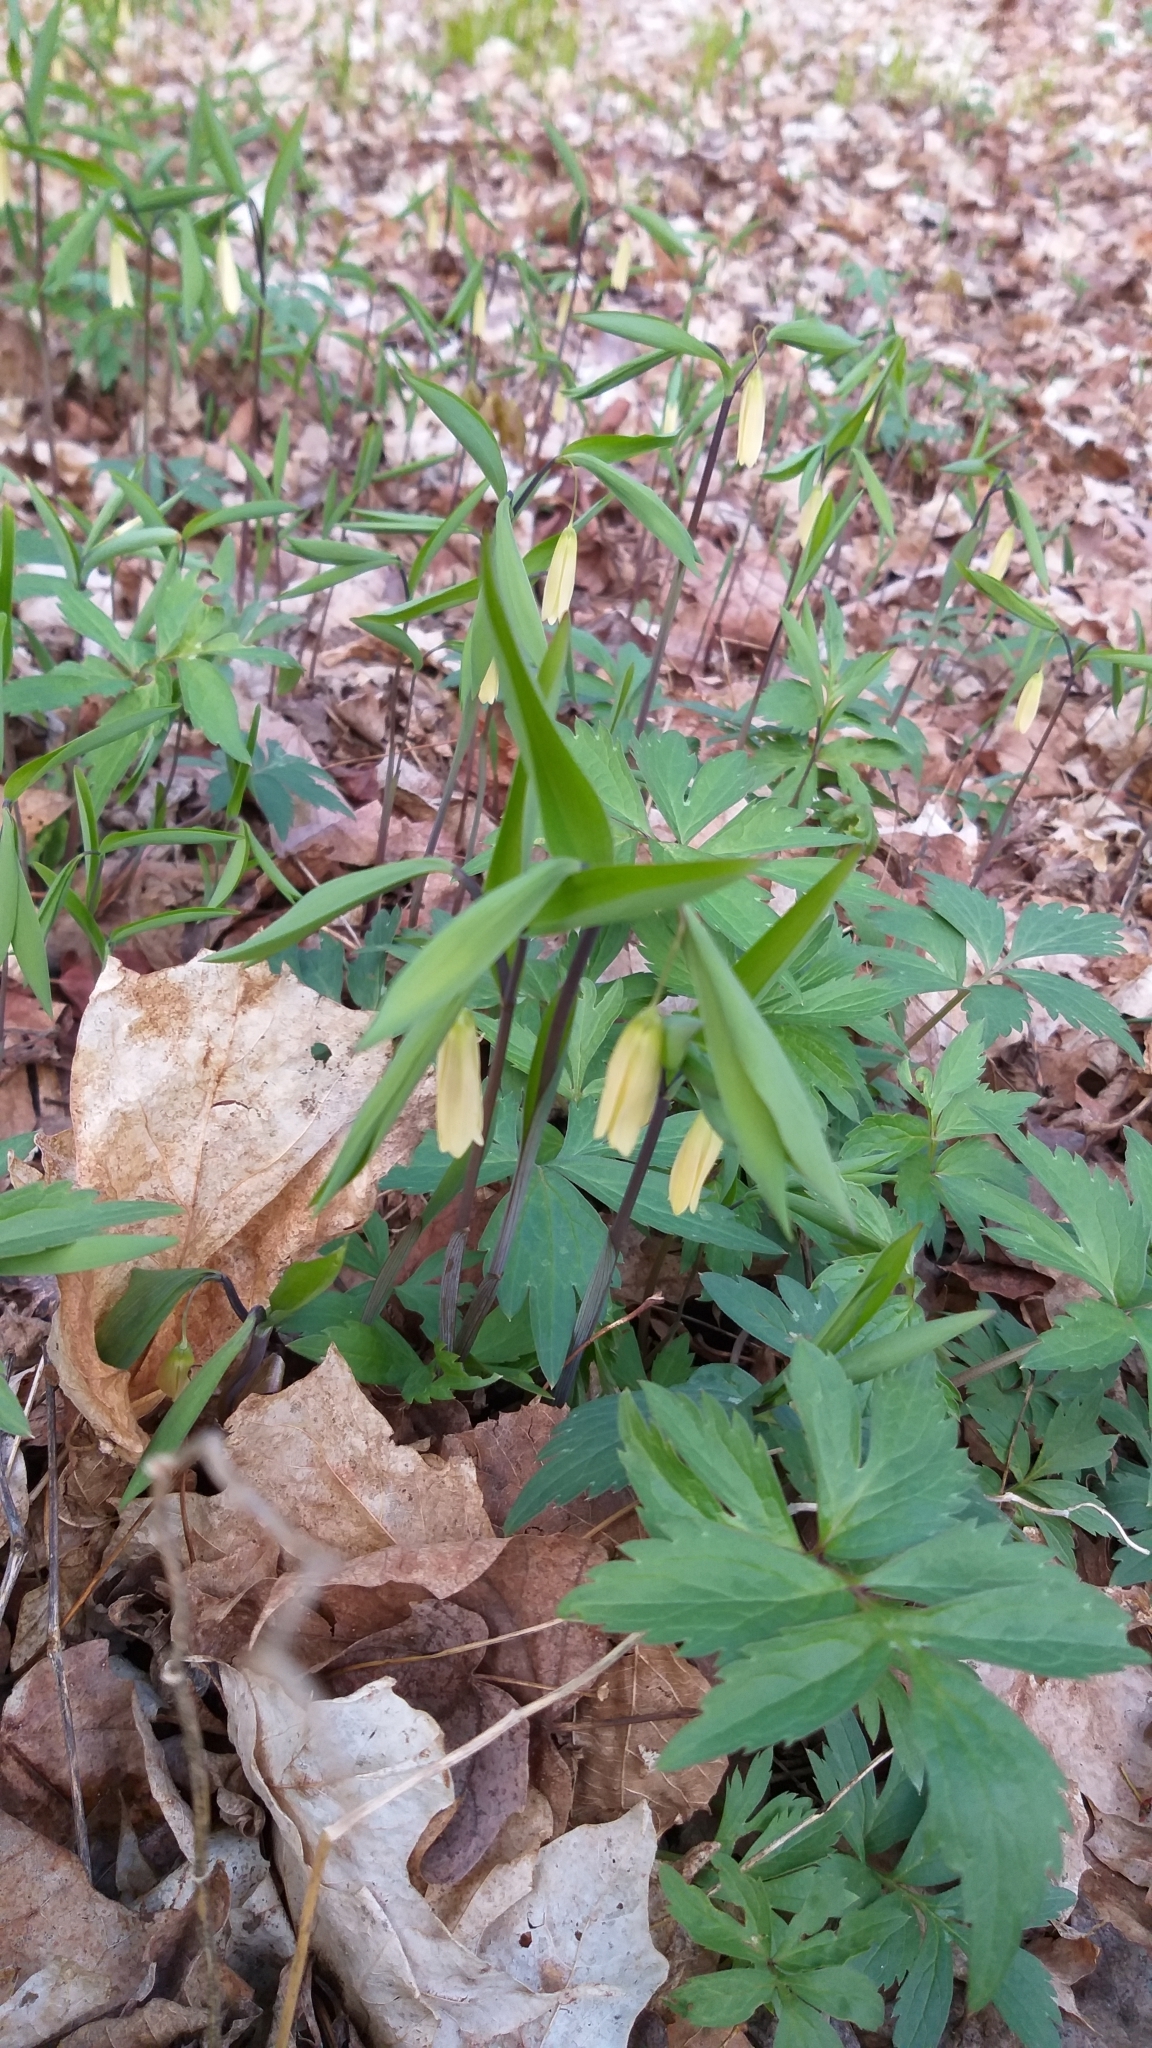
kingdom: Plantae
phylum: Tracheophyta
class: Liliopsida
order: Liliales
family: Colchicaceae
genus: Uvularia
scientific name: Uvularia sessilifolia
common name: Straw-lily
